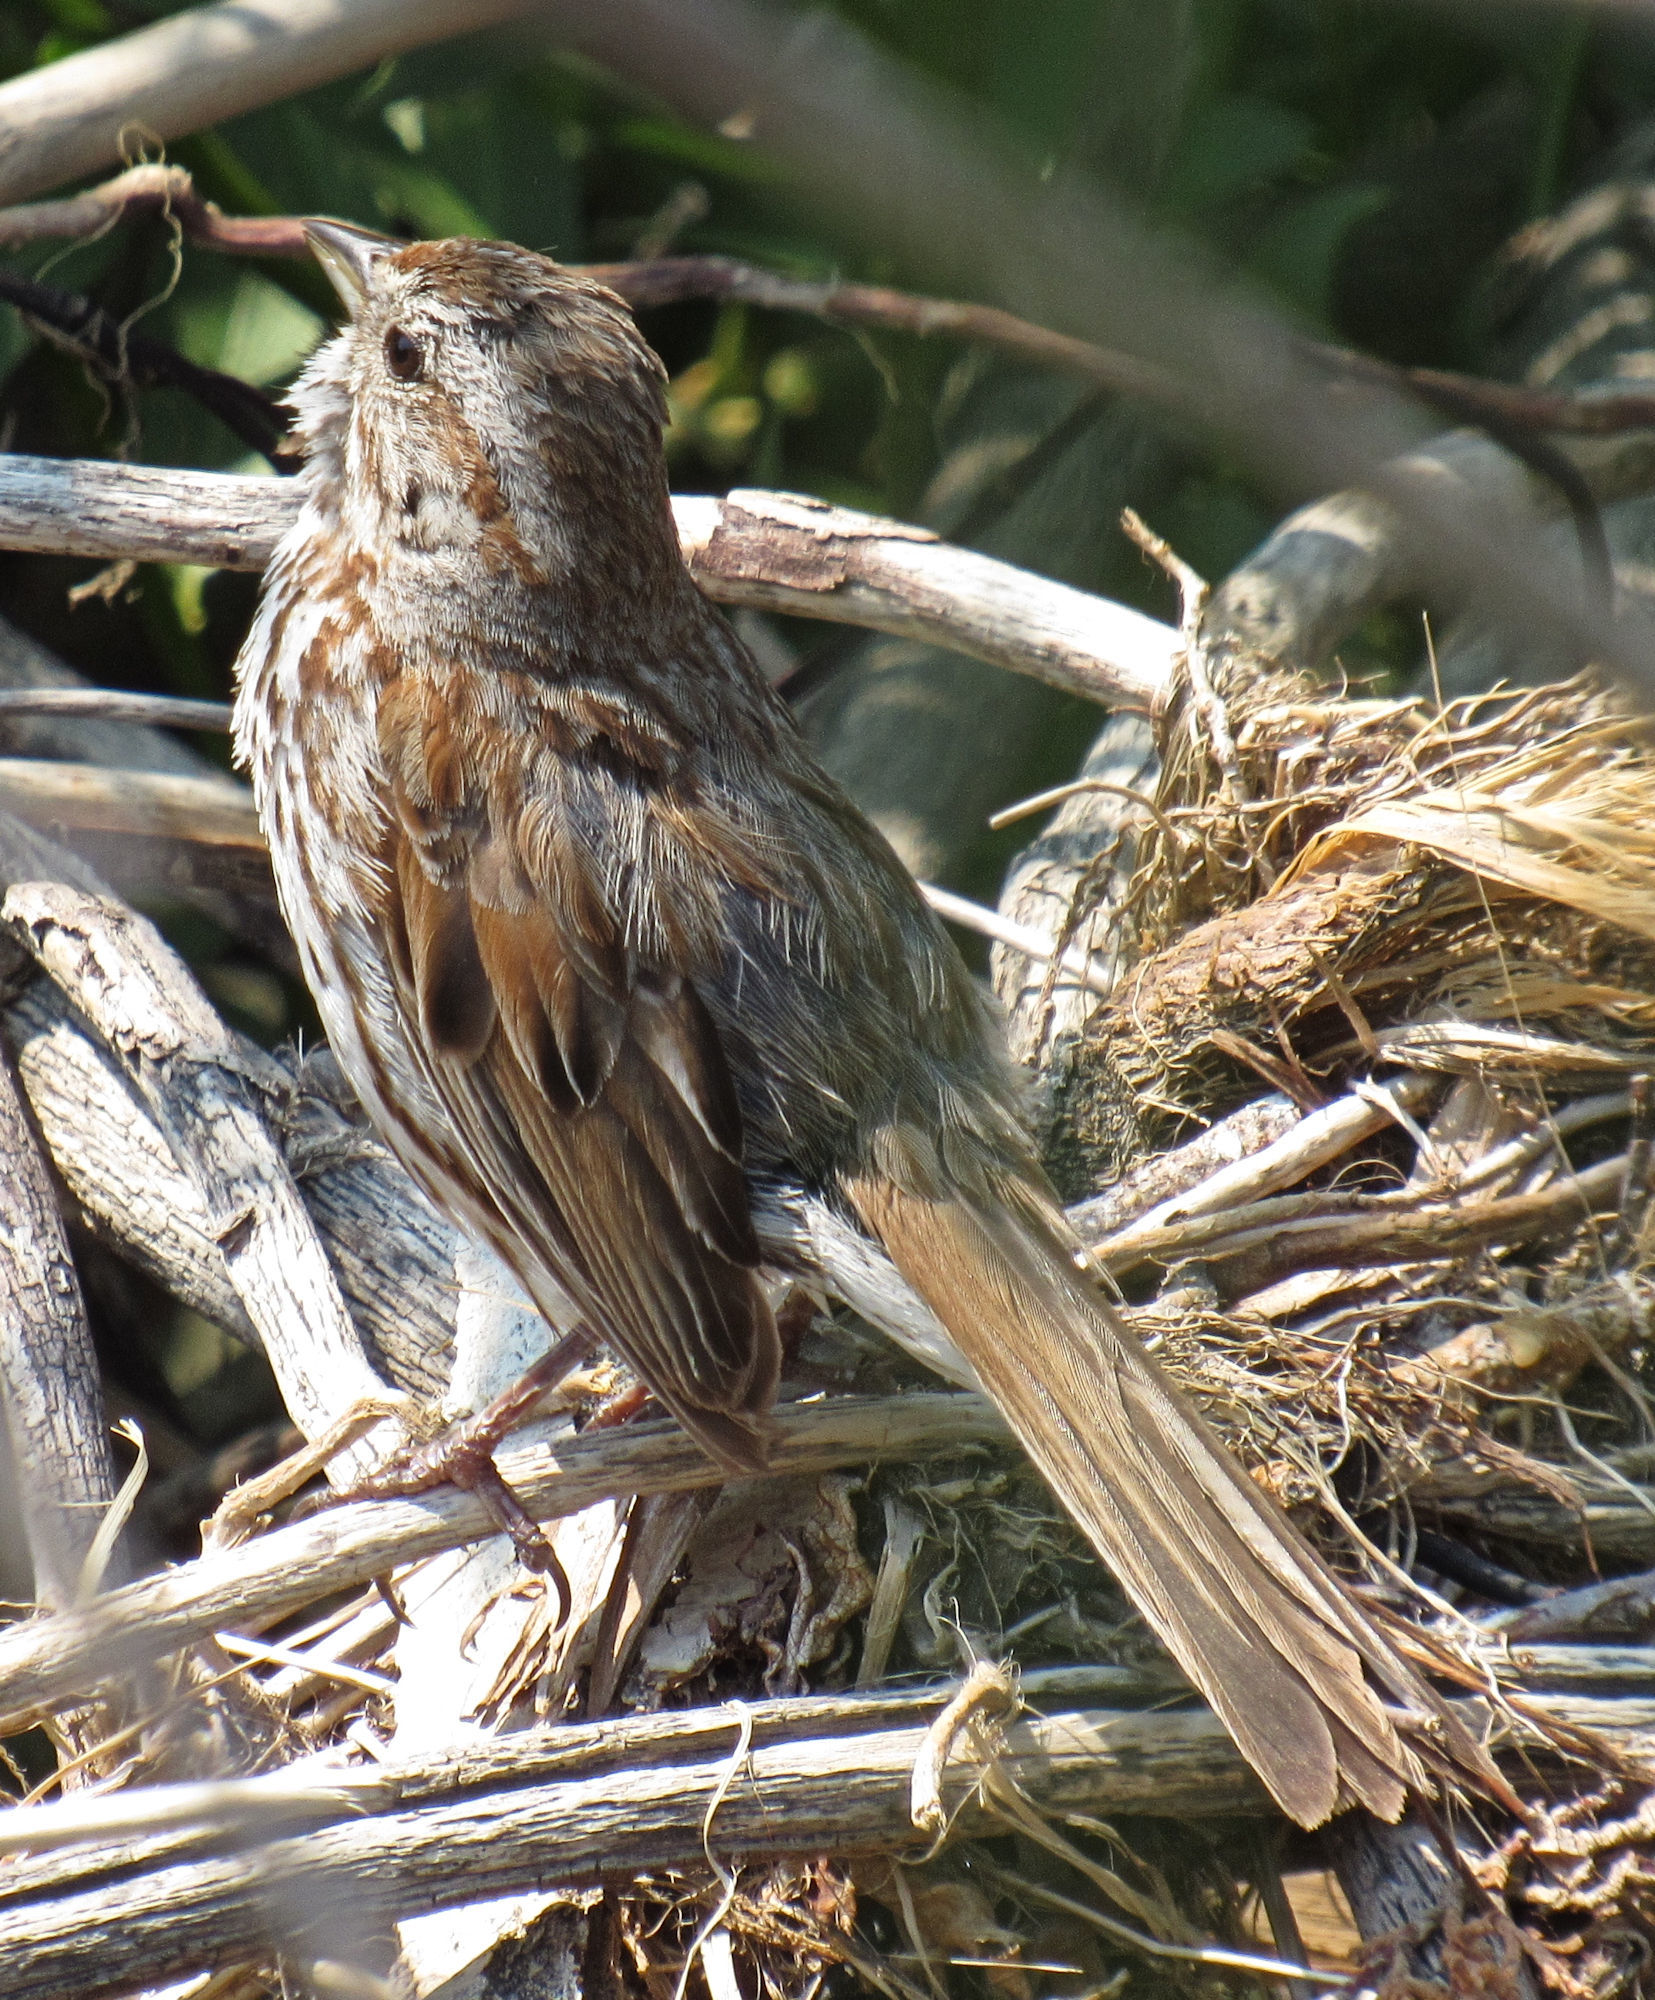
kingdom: Animalia
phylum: Chordata
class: Aves
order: Passeriformes
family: Passerellidae
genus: Melospiza
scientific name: Melospiza melodia
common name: Song sparrow
